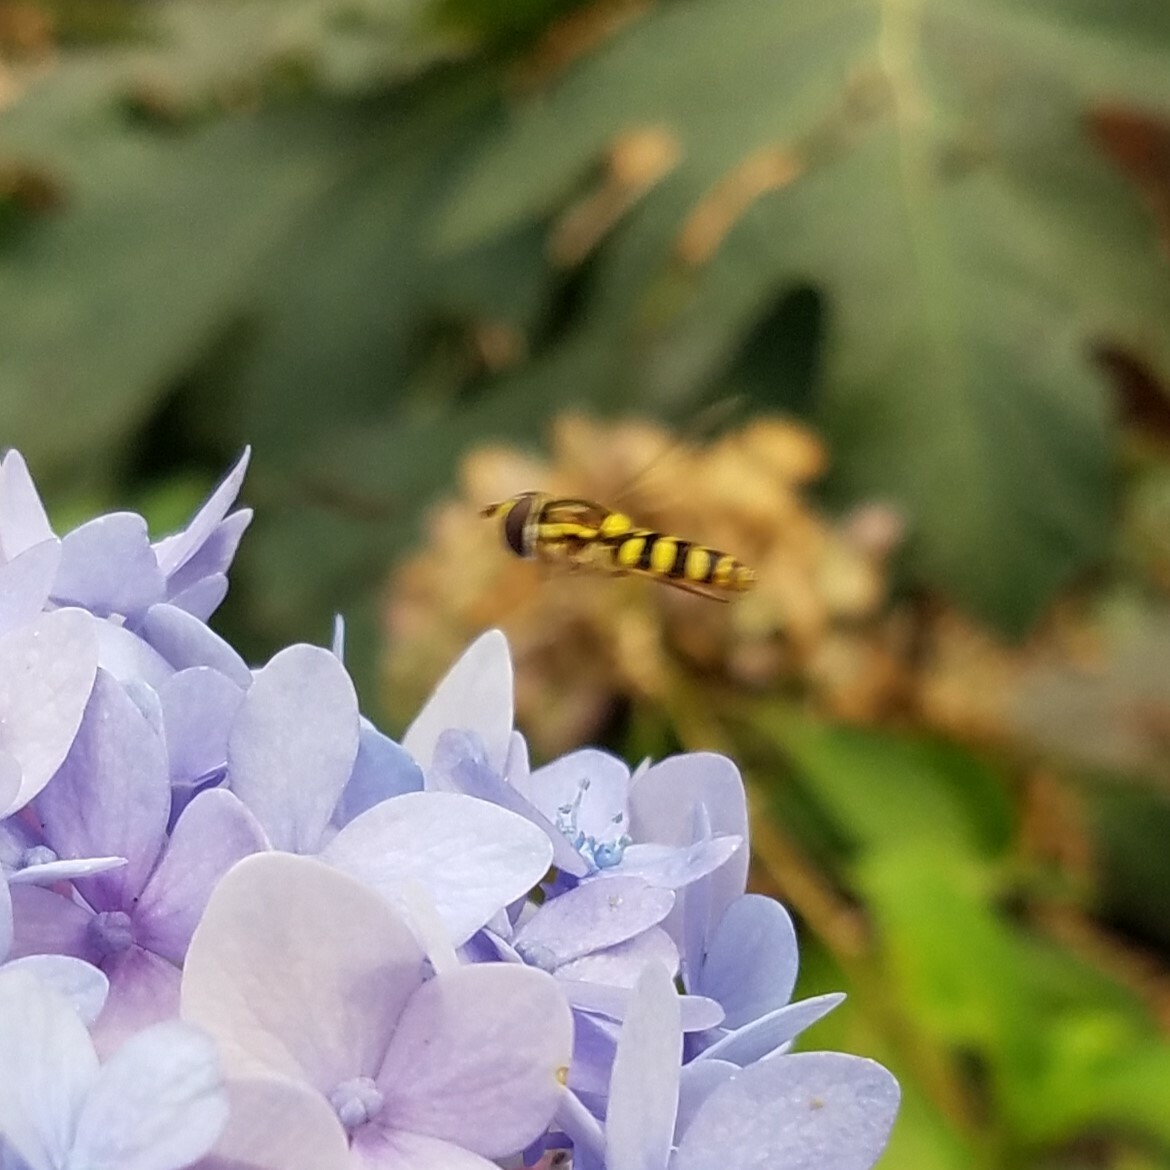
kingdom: Animalia
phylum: Arthropoda
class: Insecta
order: Diptera
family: Syrphidae
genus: Epistrophella
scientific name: Epistrophella emarginata
